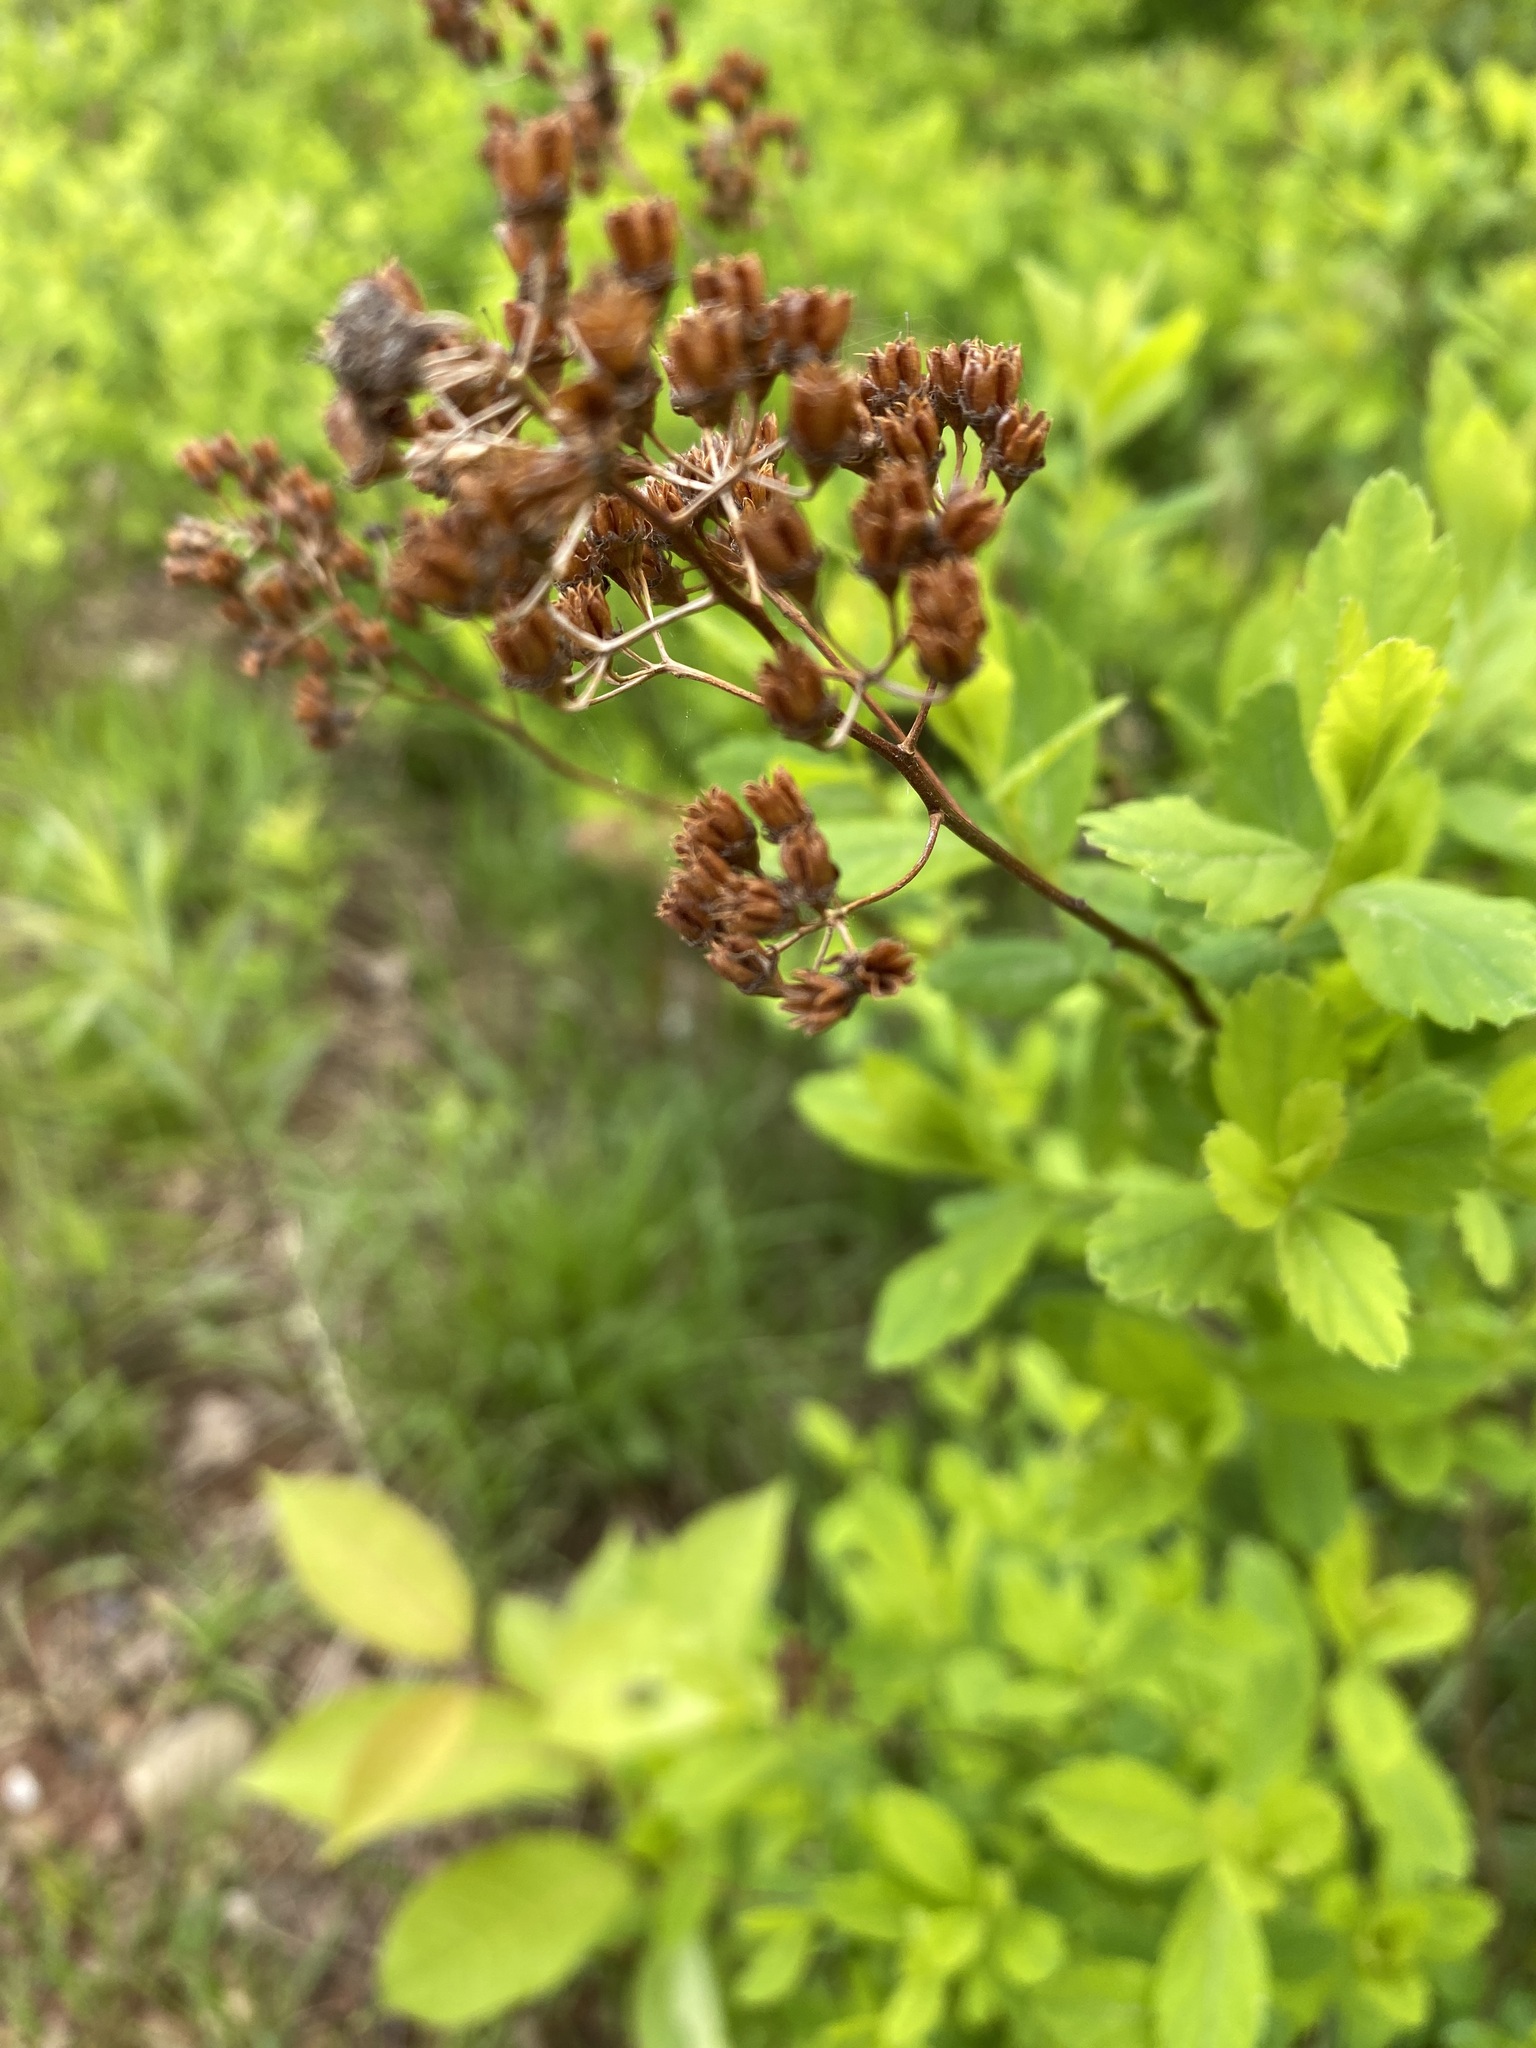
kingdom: Plantae
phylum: Tracheophyta
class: Magnoliopsida
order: Rosales
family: Rosaceae
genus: Spiraea
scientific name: Spiraea alba
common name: Pale bridewort
